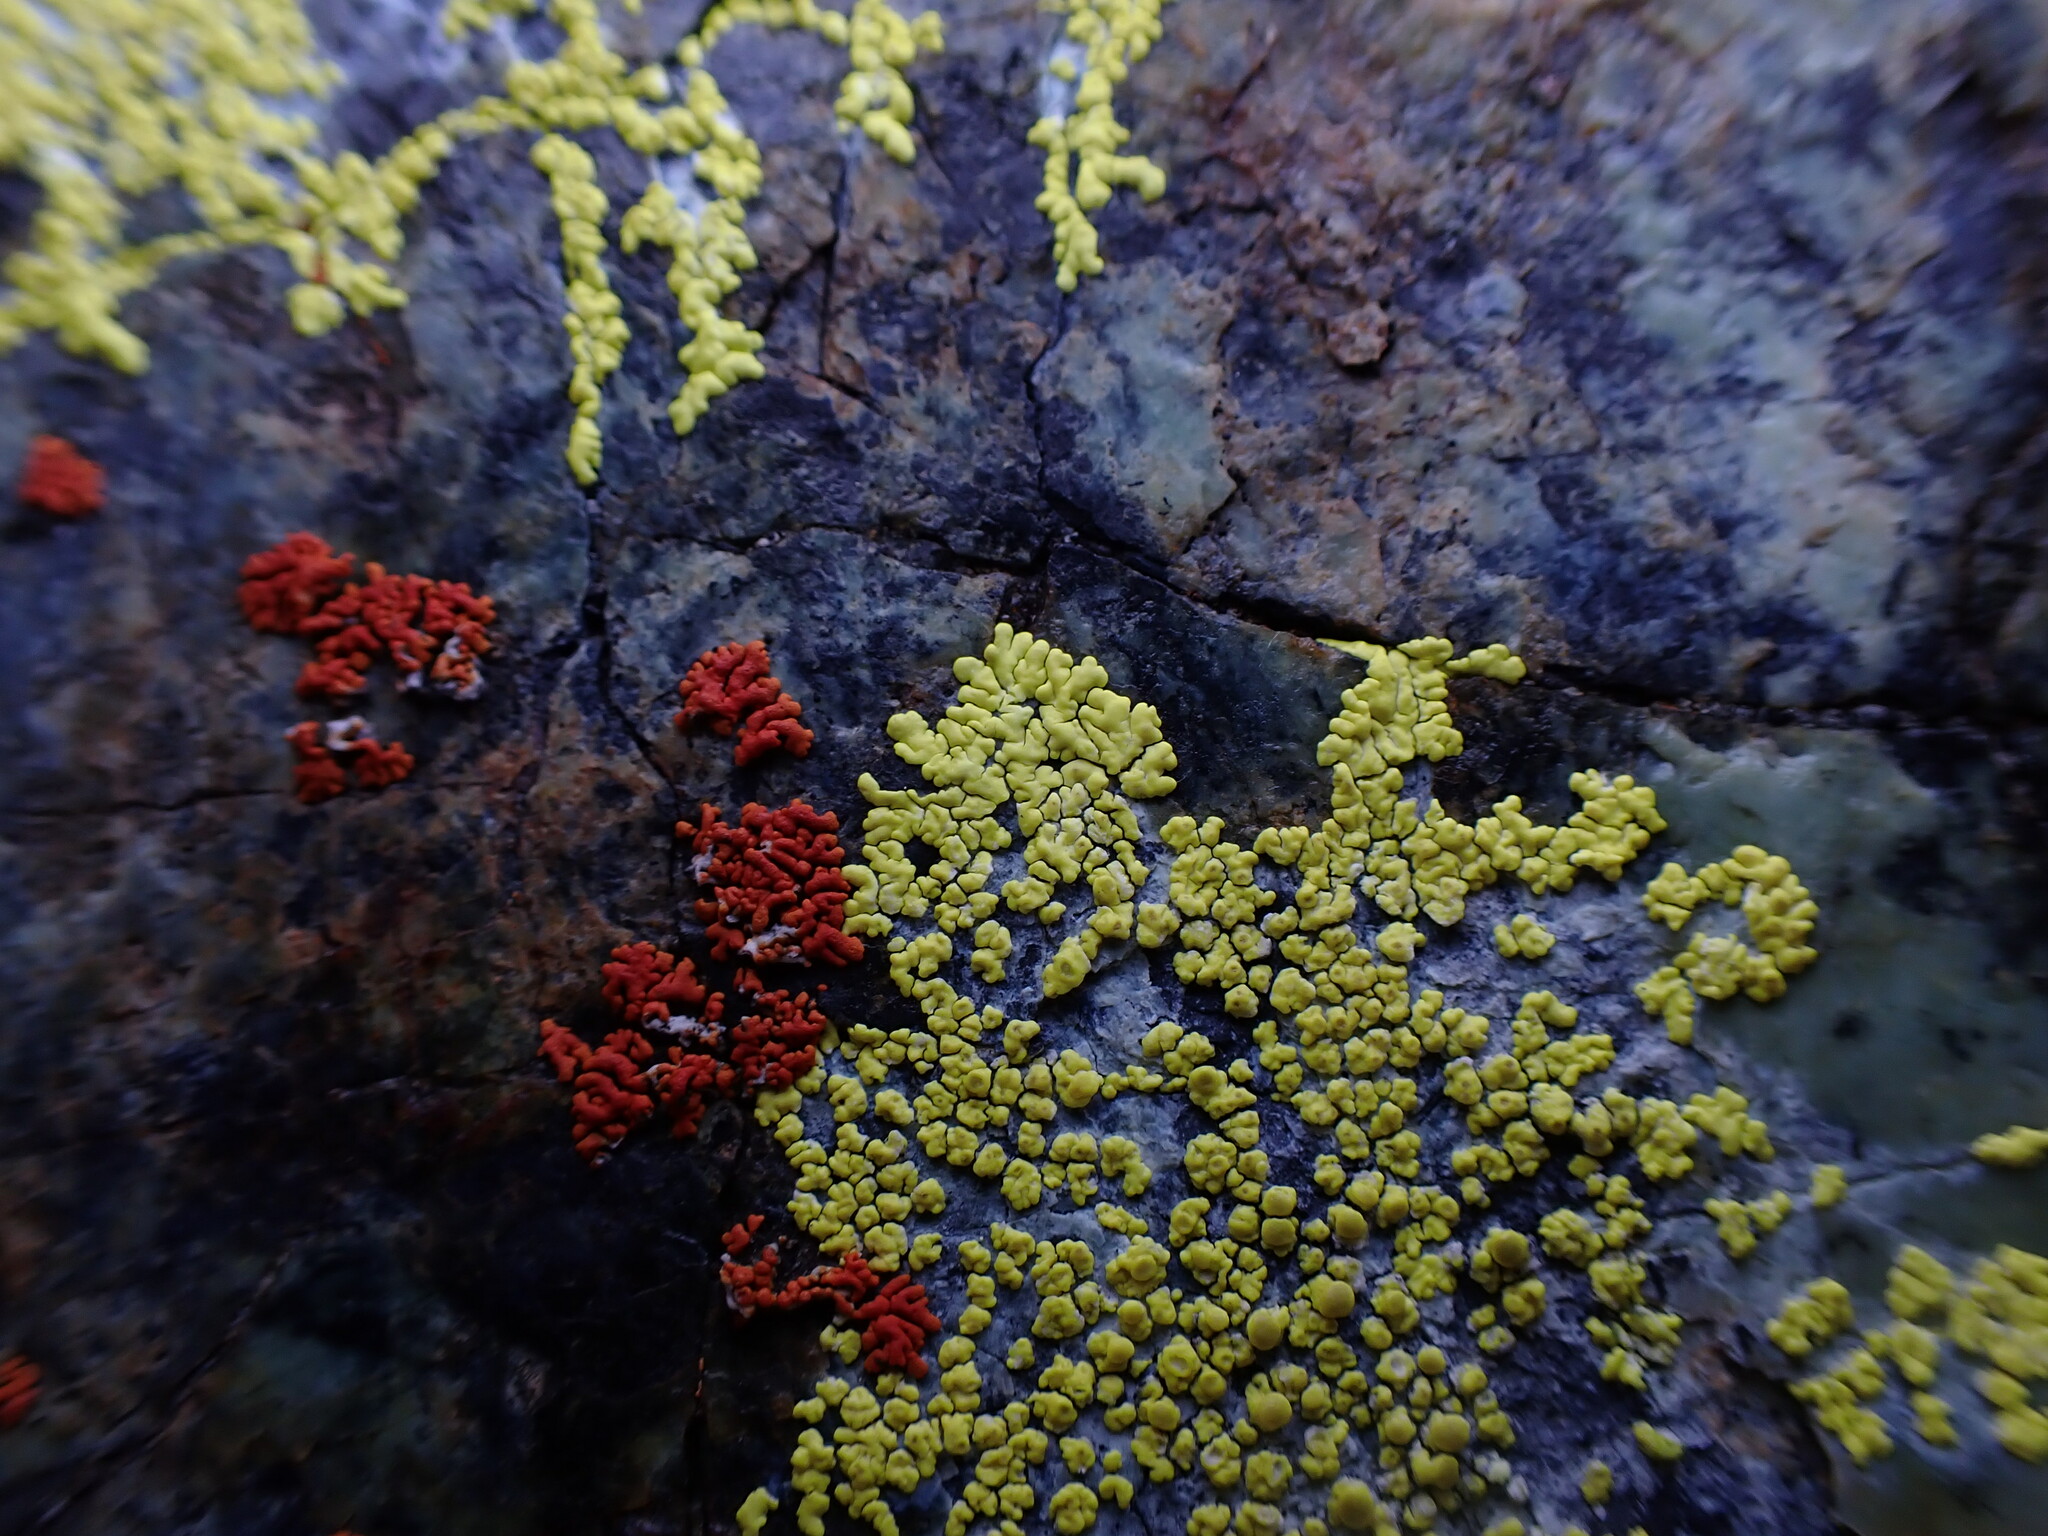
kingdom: Fungi
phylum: Ascomycota
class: Lecanoromycetes
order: Acarosporales
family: Acarosporaceae
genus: Pleopsidium
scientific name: Pleopsidium oxytonum
